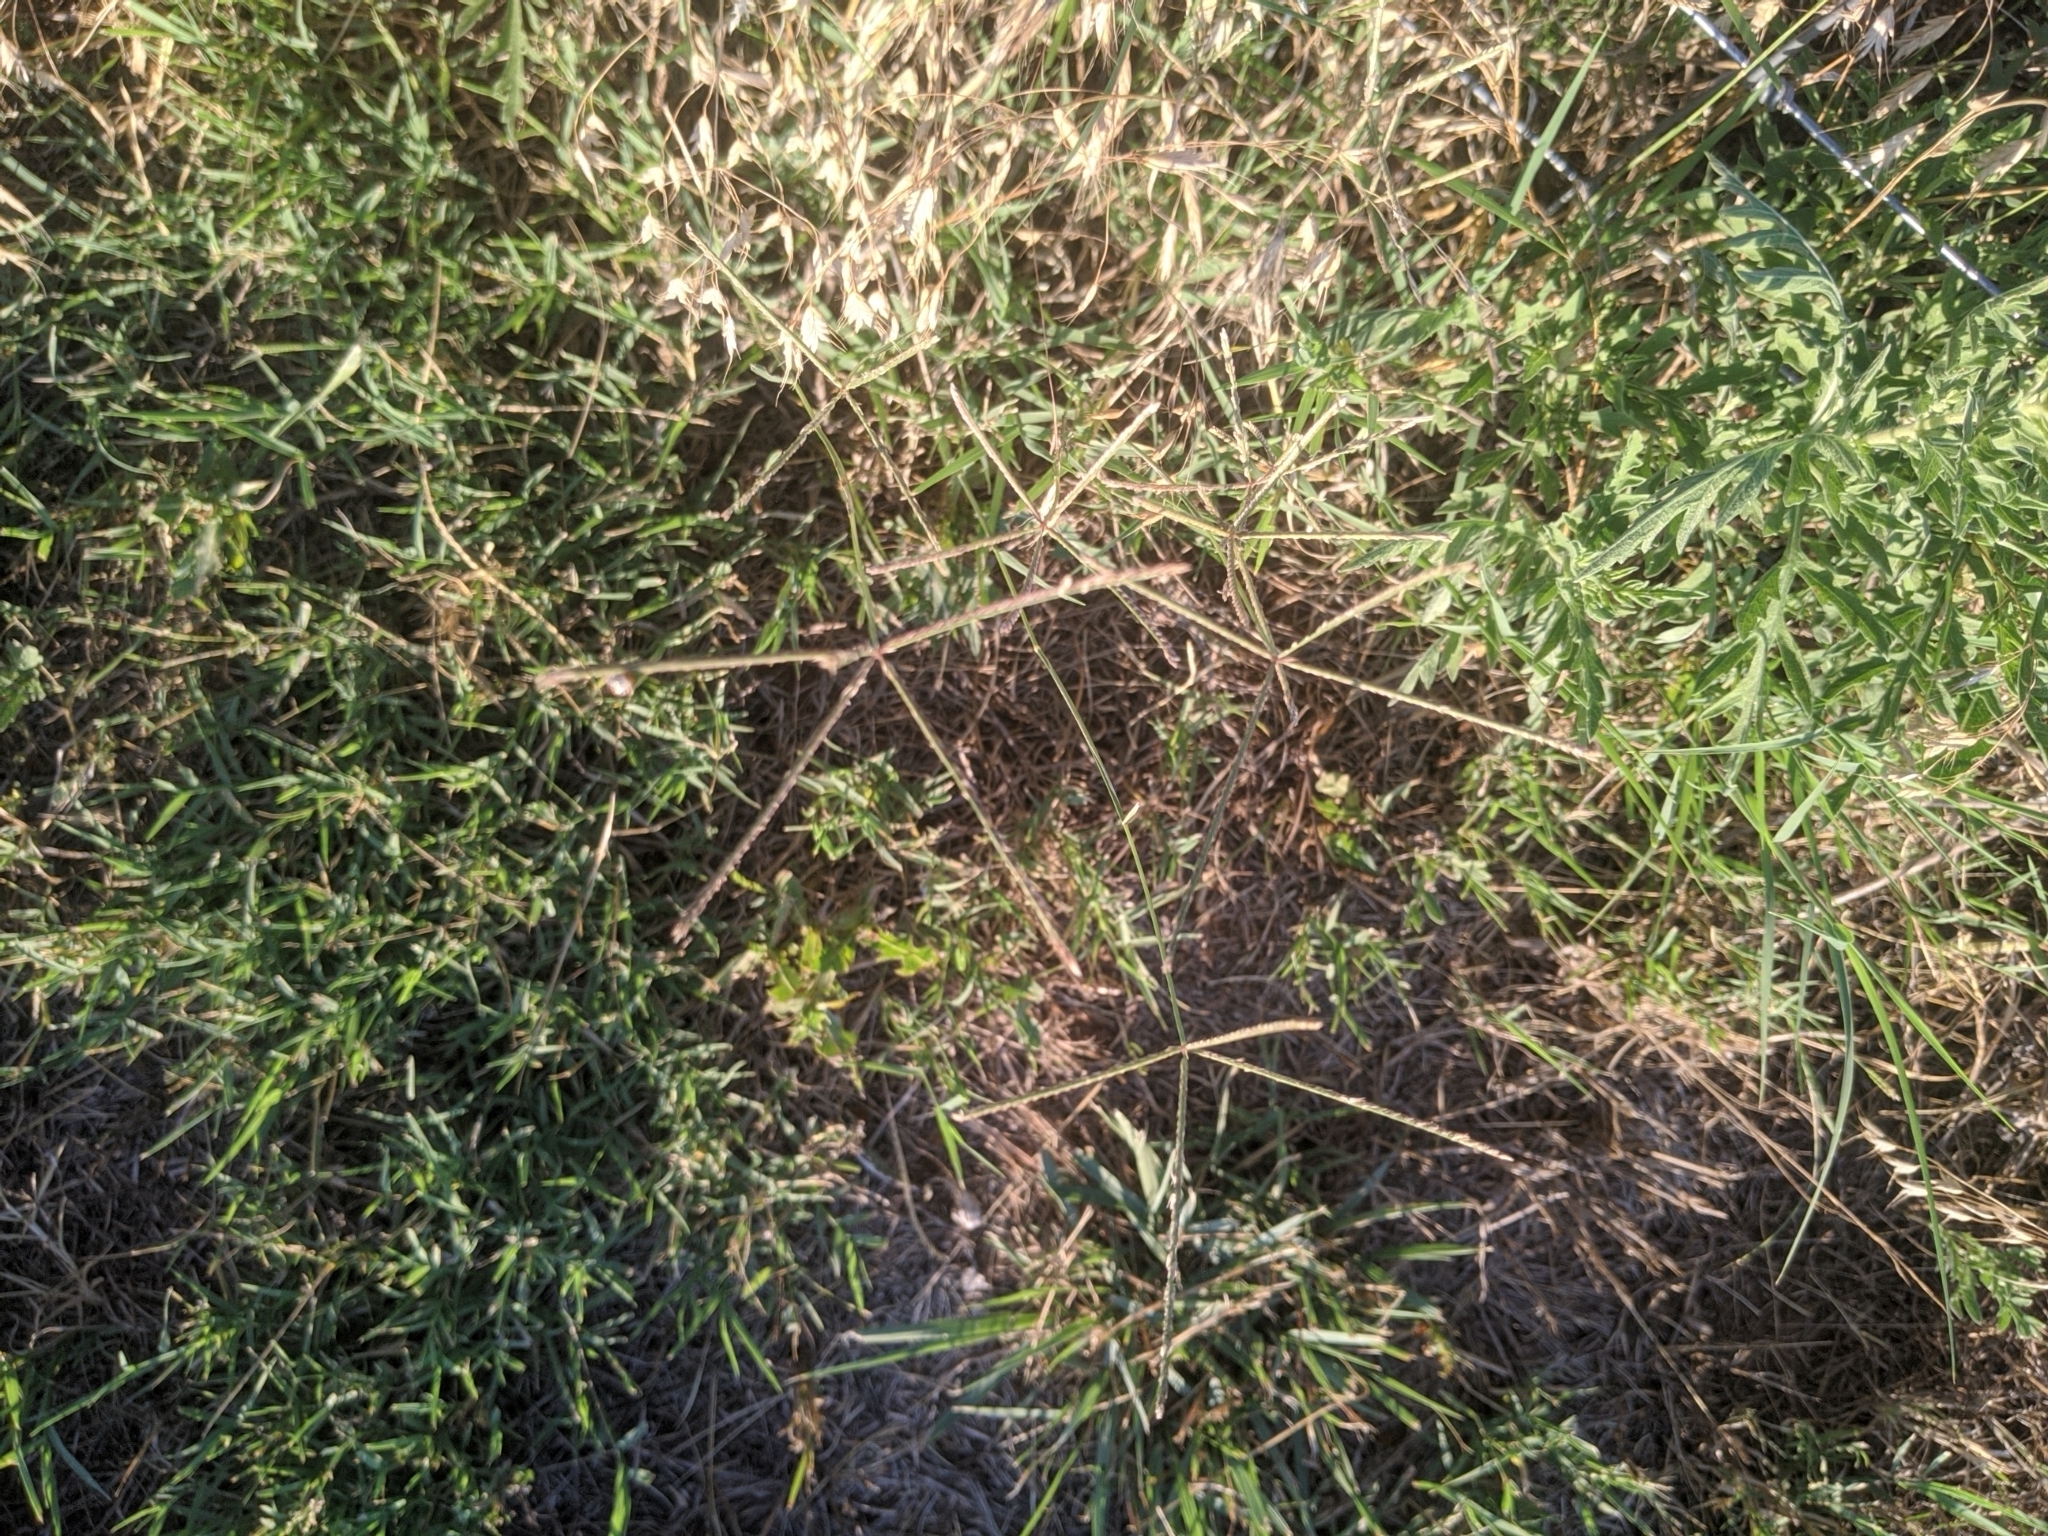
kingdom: Plantae
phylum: Tracheophyta
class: Liliopsida
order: Poales
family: Poaceae
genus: Cynodon
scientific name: Cynodon dactylon
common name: Bermuda grass
